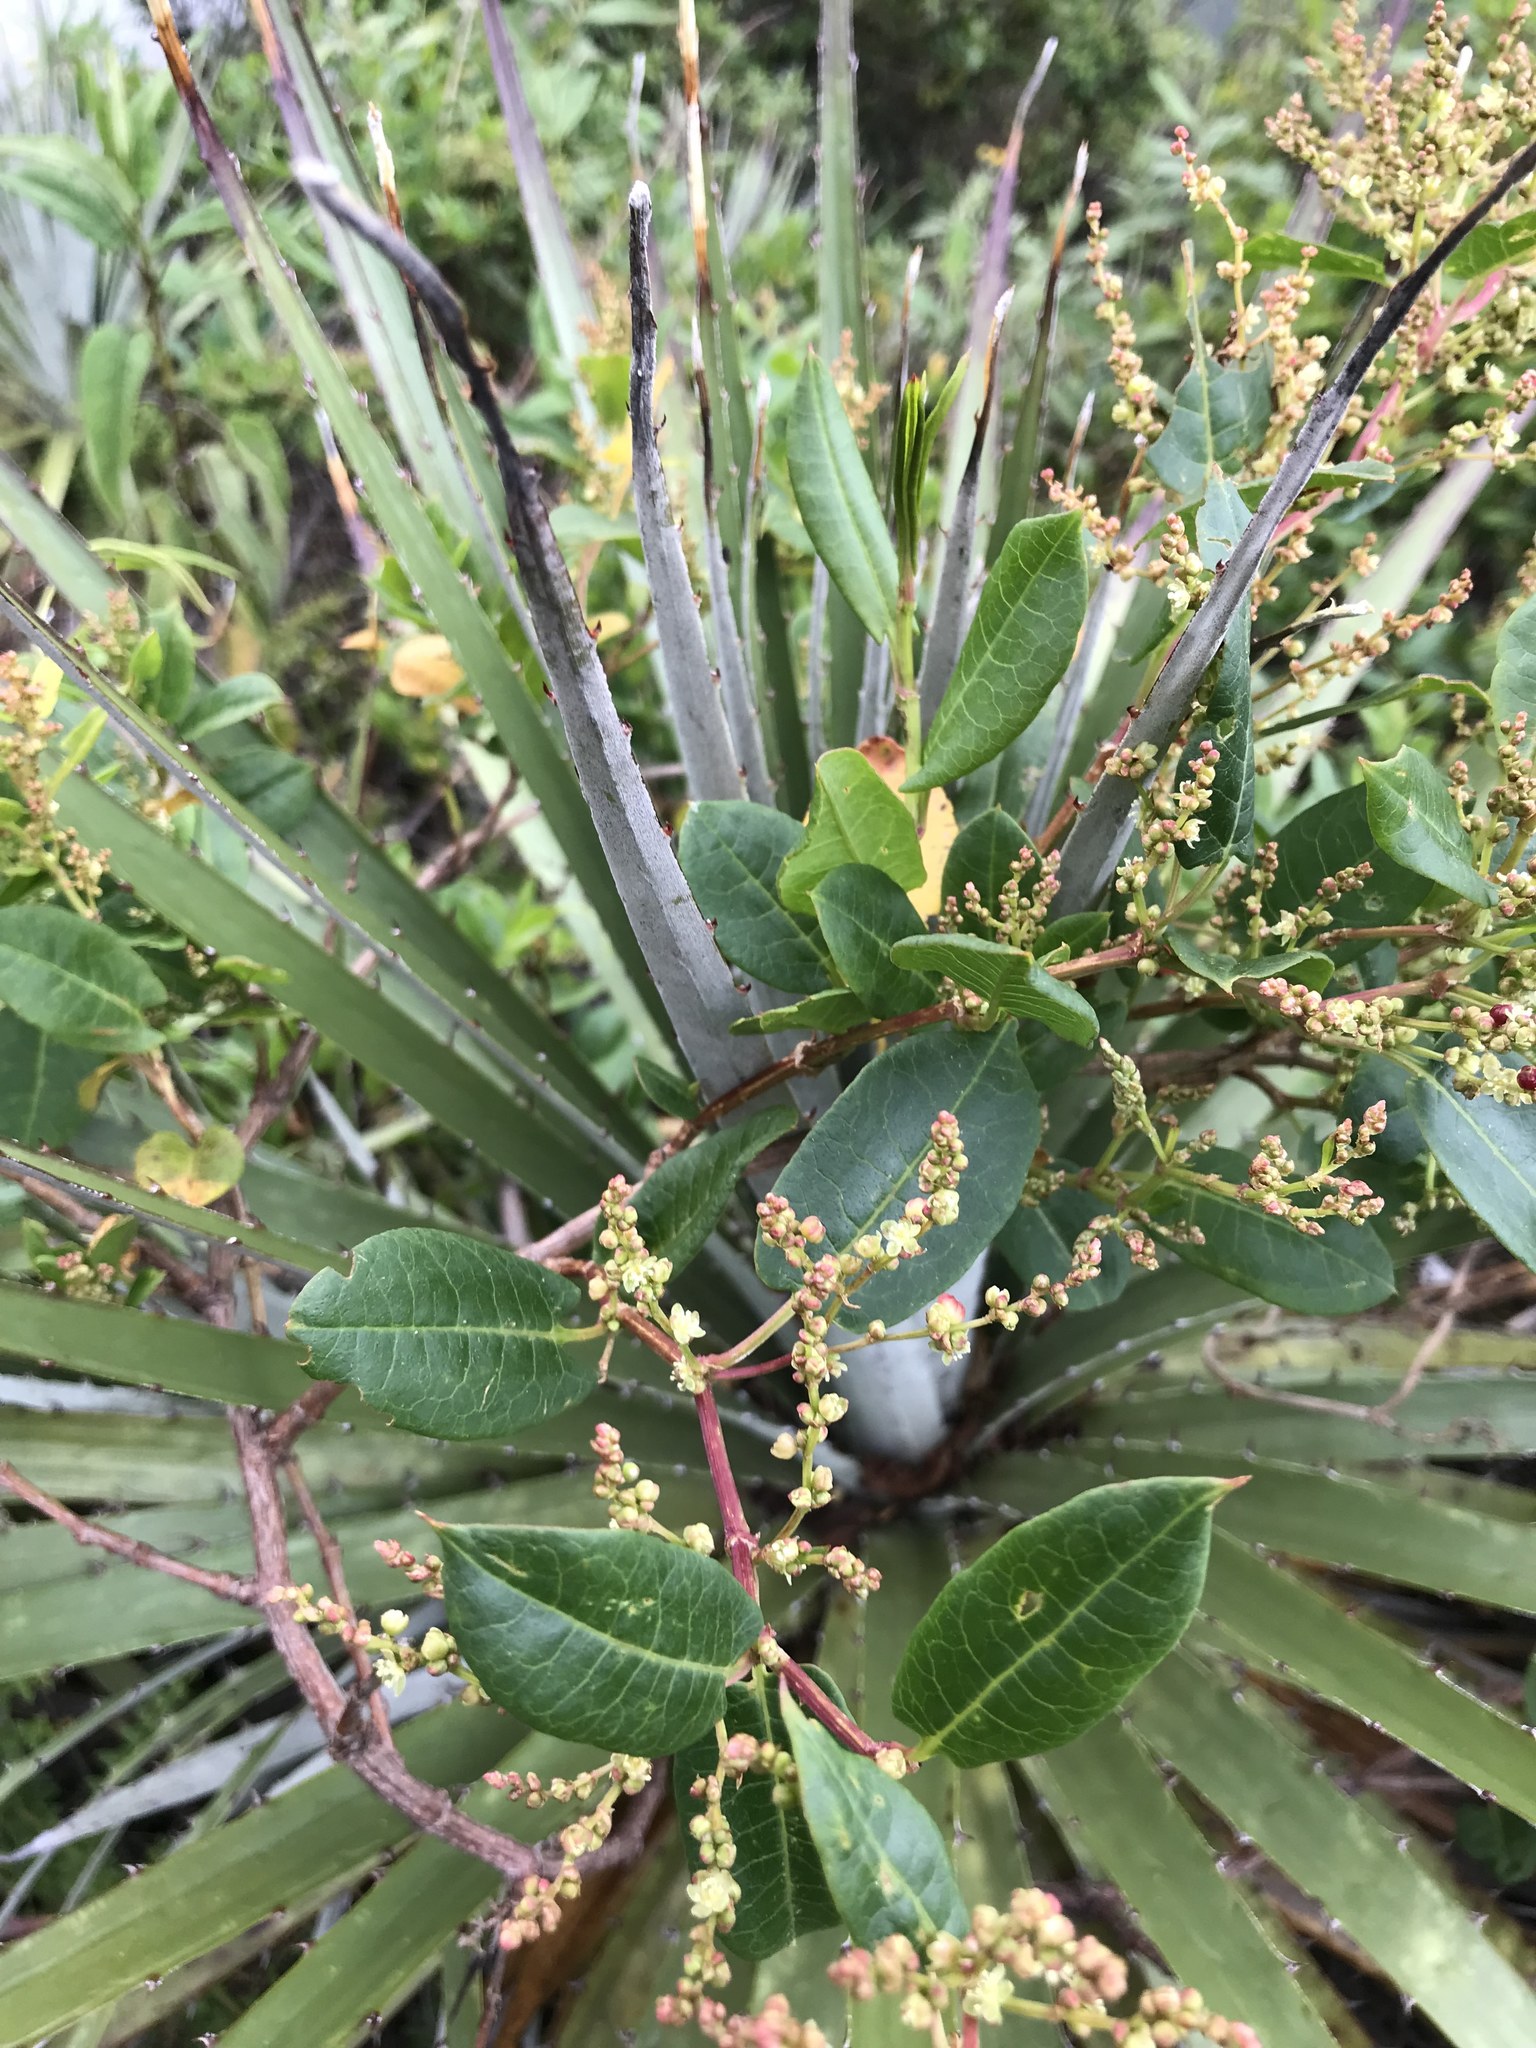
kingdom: Plantae
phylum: Tracheophyta
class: Magnoliopsida
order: Caryophyllales
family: Polygonaceae
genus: Muehlenbeckia
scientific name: Muehlenbeckia tamnifolia
